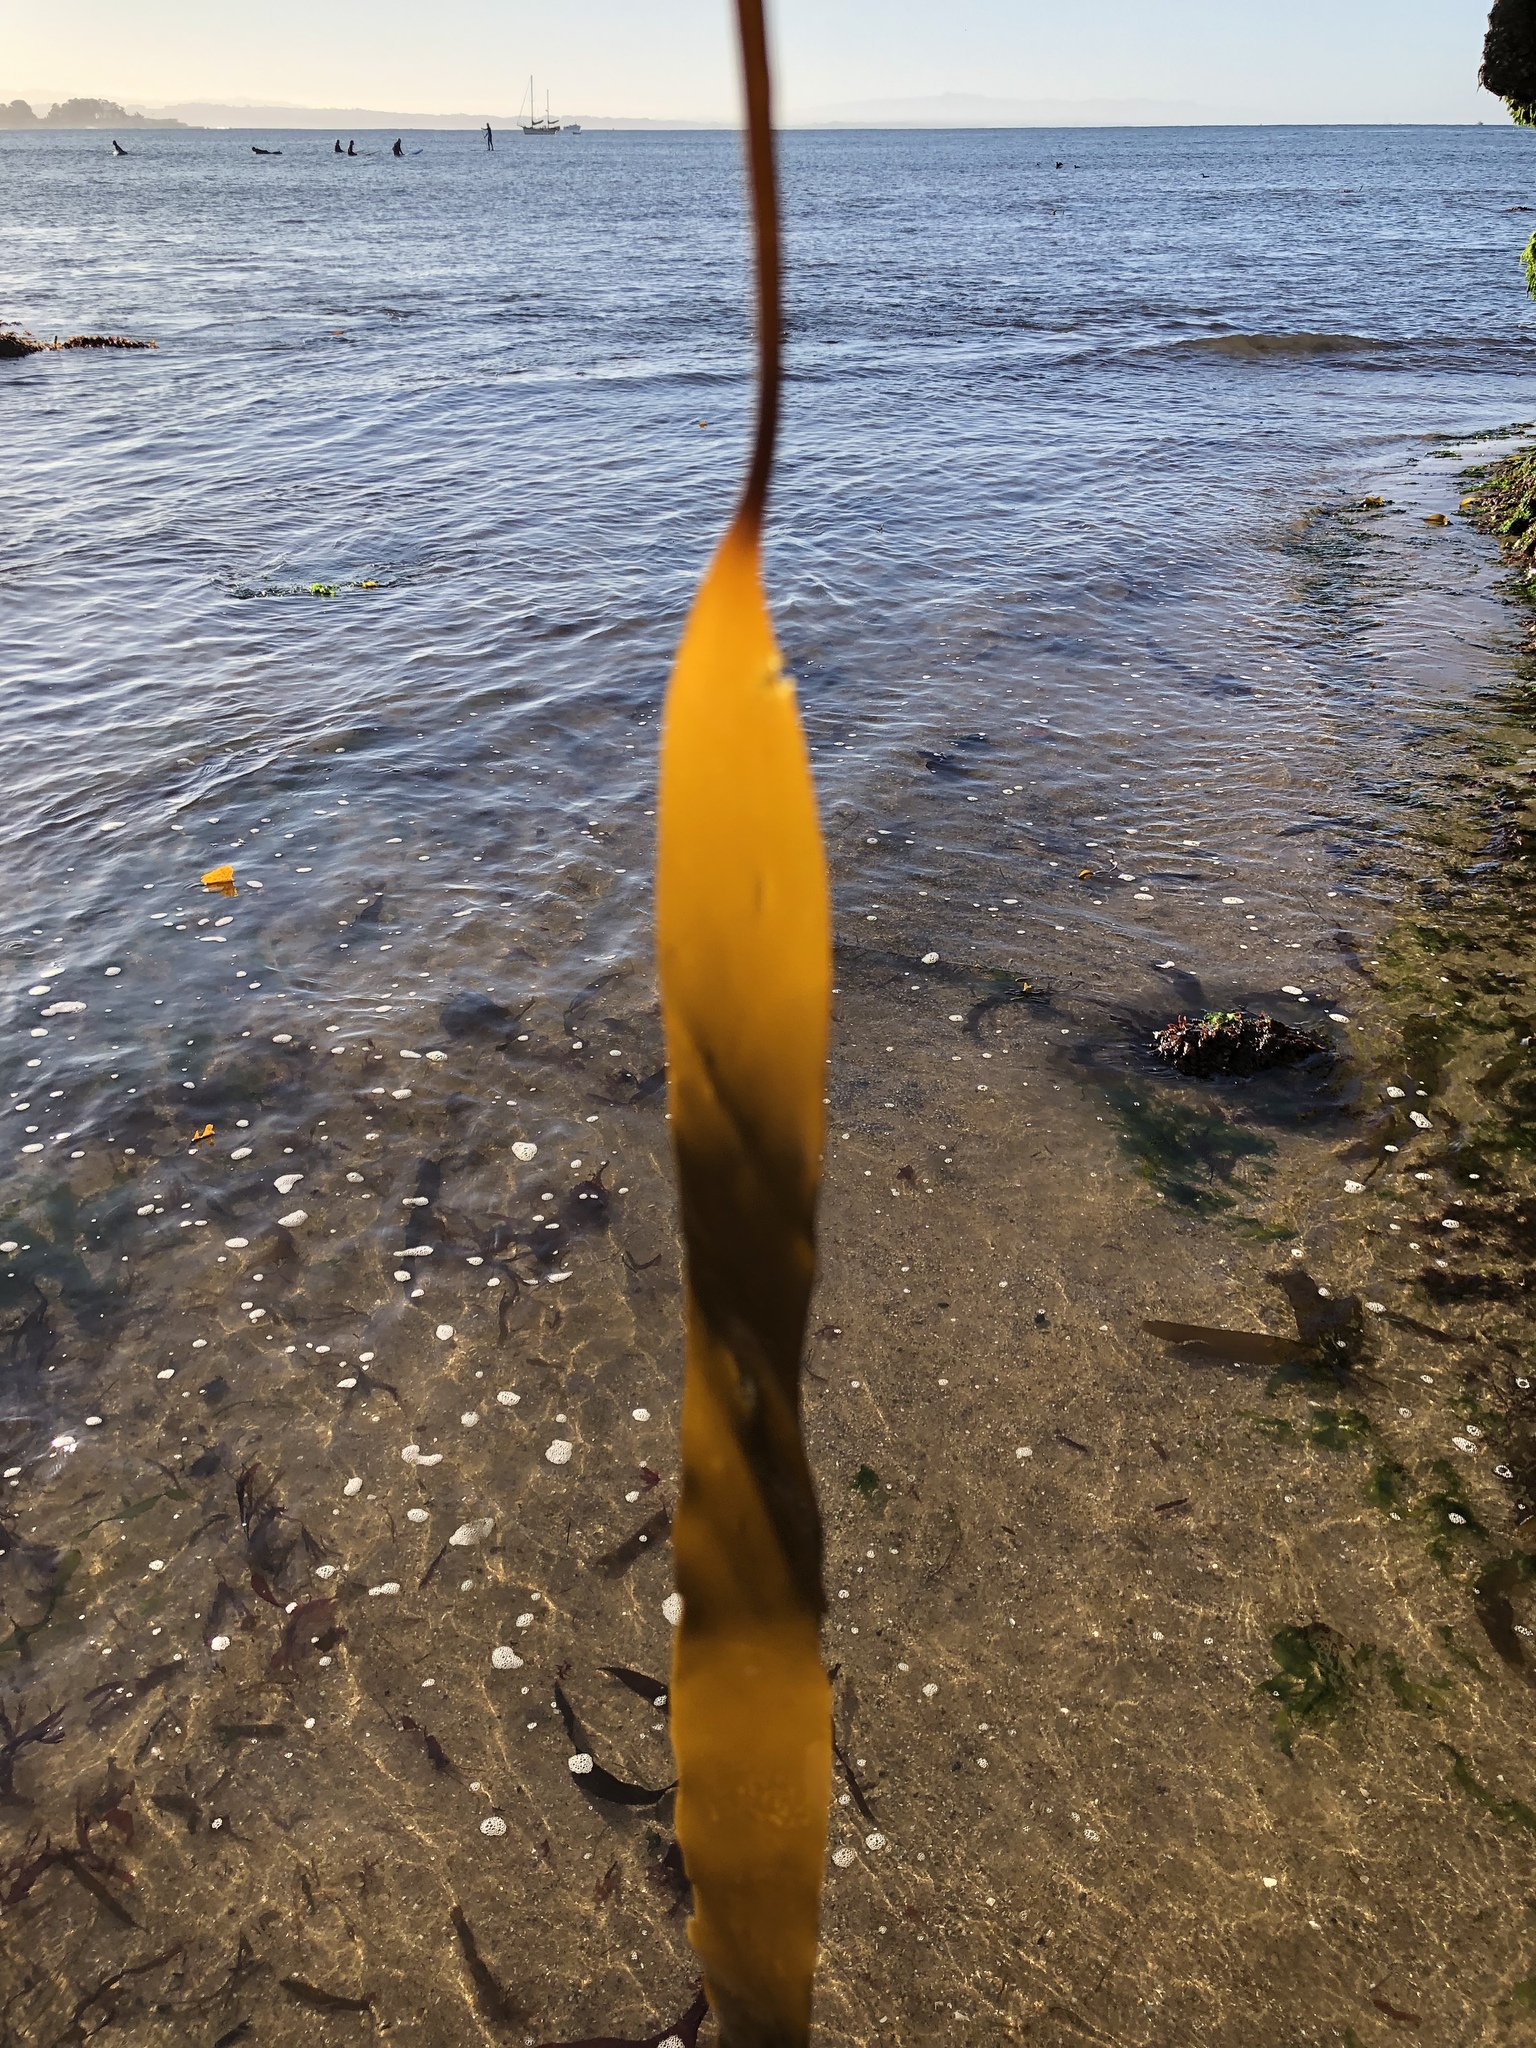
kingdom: Chromista
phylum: Ochrophyta
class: Phaeophyceae
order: Laminariales
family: Laminariaceae
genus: Laminaria
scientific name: Laminaria sinclairii
